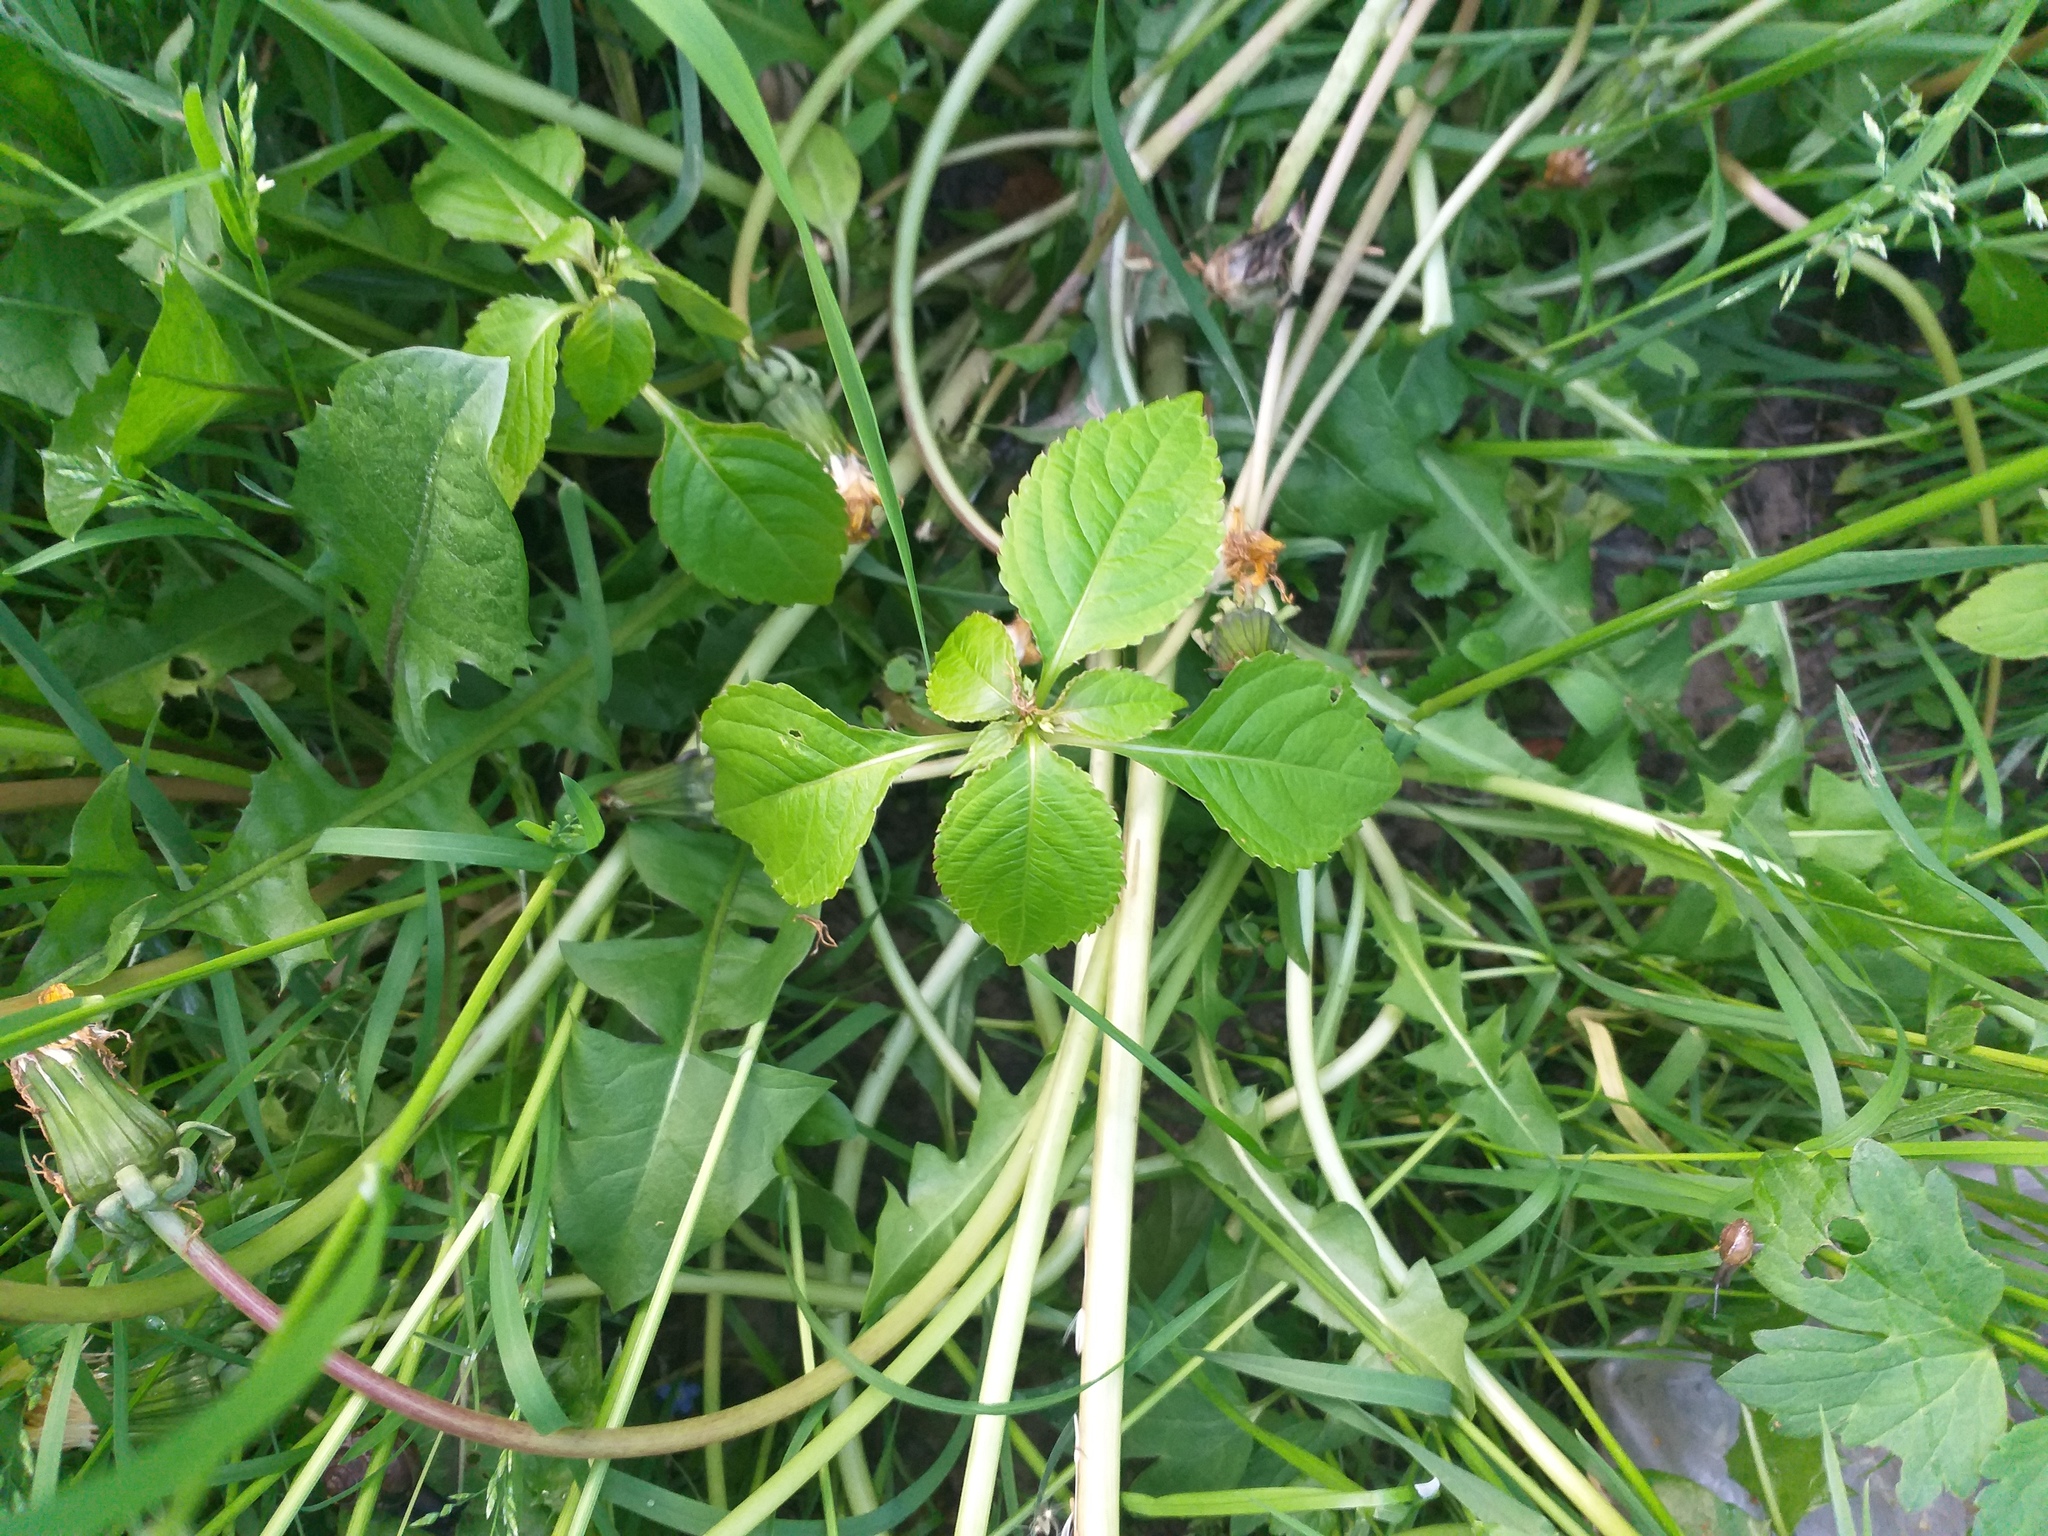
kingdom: Plantae
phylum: Tracheophyta
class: Magnoliopsida
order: Ericales
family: Balsaminaceae
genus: Impatiens
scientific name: Impatiens parviflora
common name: Small balsam
